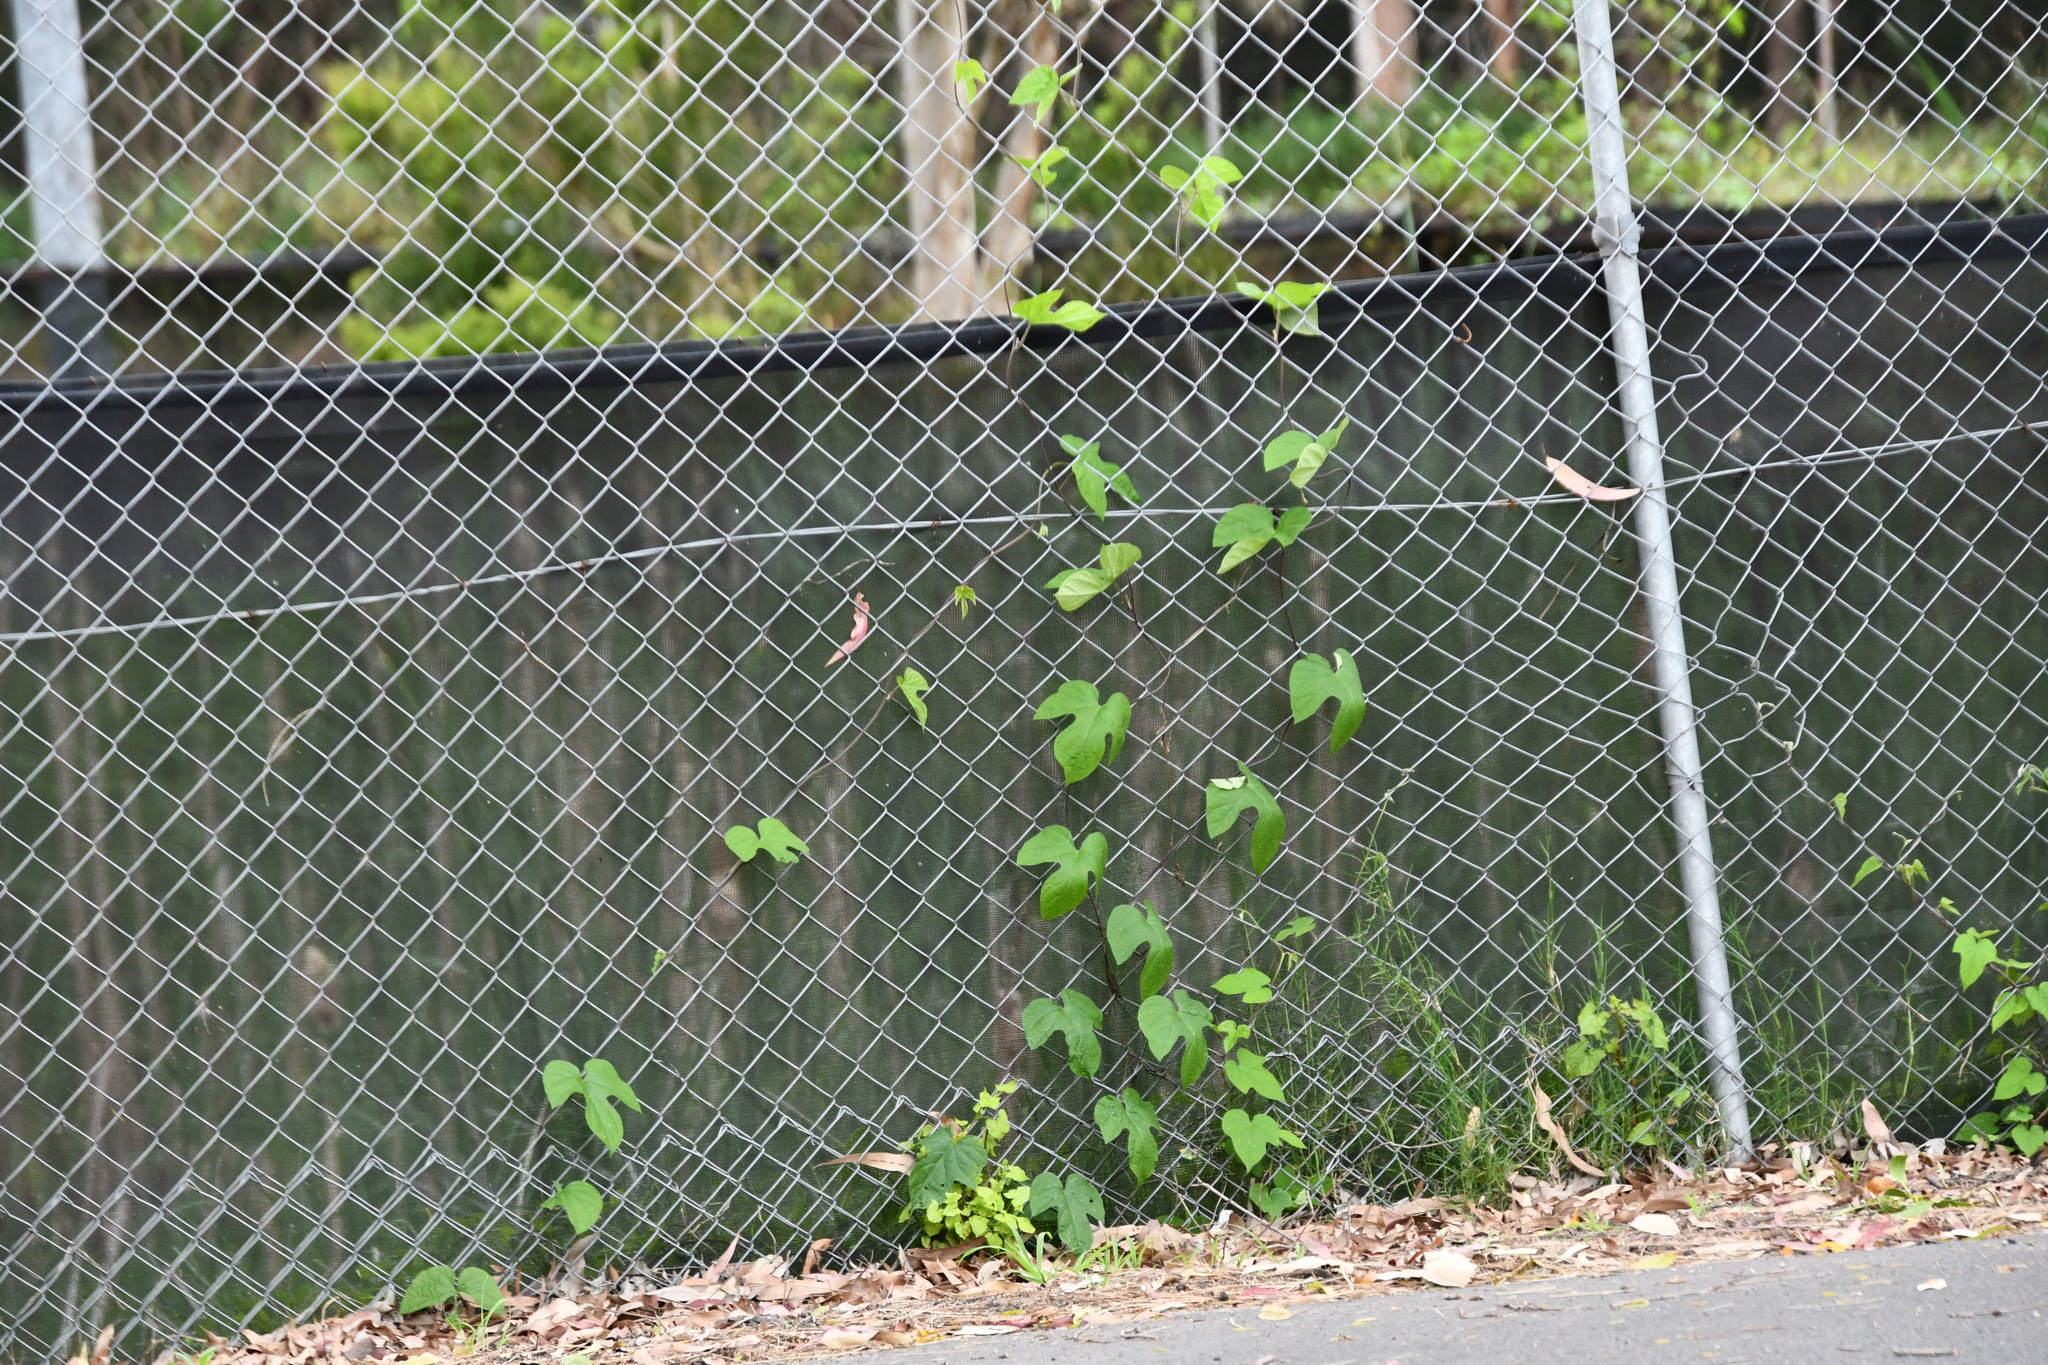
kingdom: Plantae
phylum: Tracheophyta
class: Magnoliopsida
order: Solanales
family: Convolvulaceae
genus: Ipomoea
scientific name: Ipomoea indica
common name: Blue dawnflower
